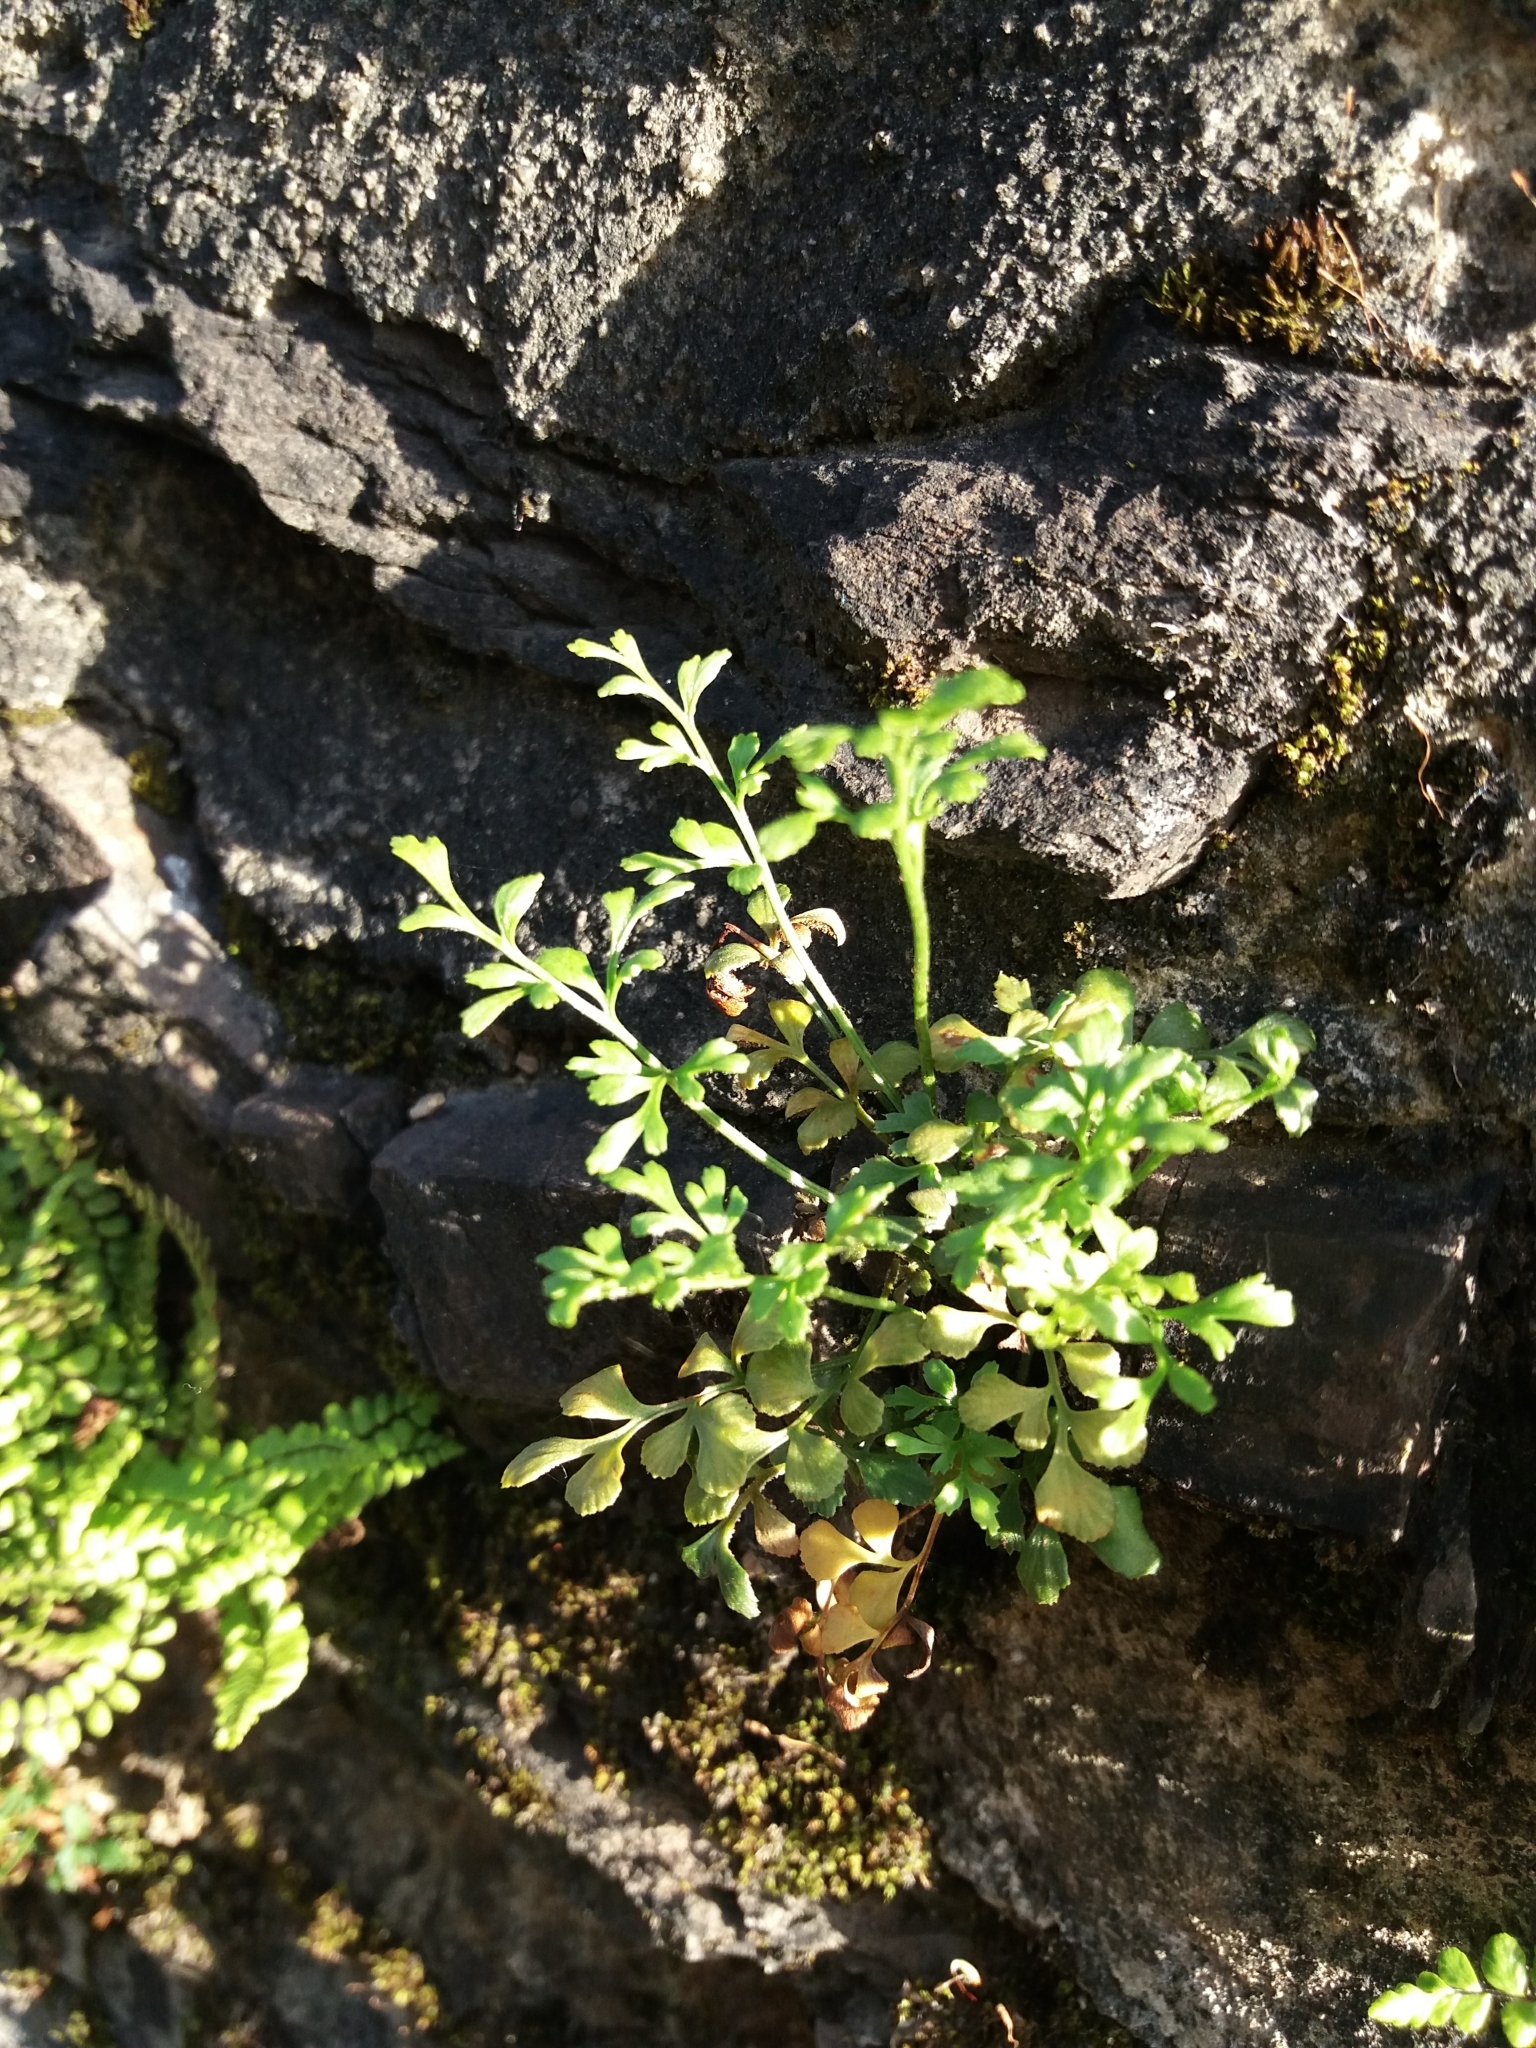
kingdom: Plantae
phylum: Tracheophyta
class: Polypodiopsida
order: Polypodiales
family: Aspleniaceae
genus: Asplenium
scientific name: Asplenium ruta-muraria
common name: Wall-rue
